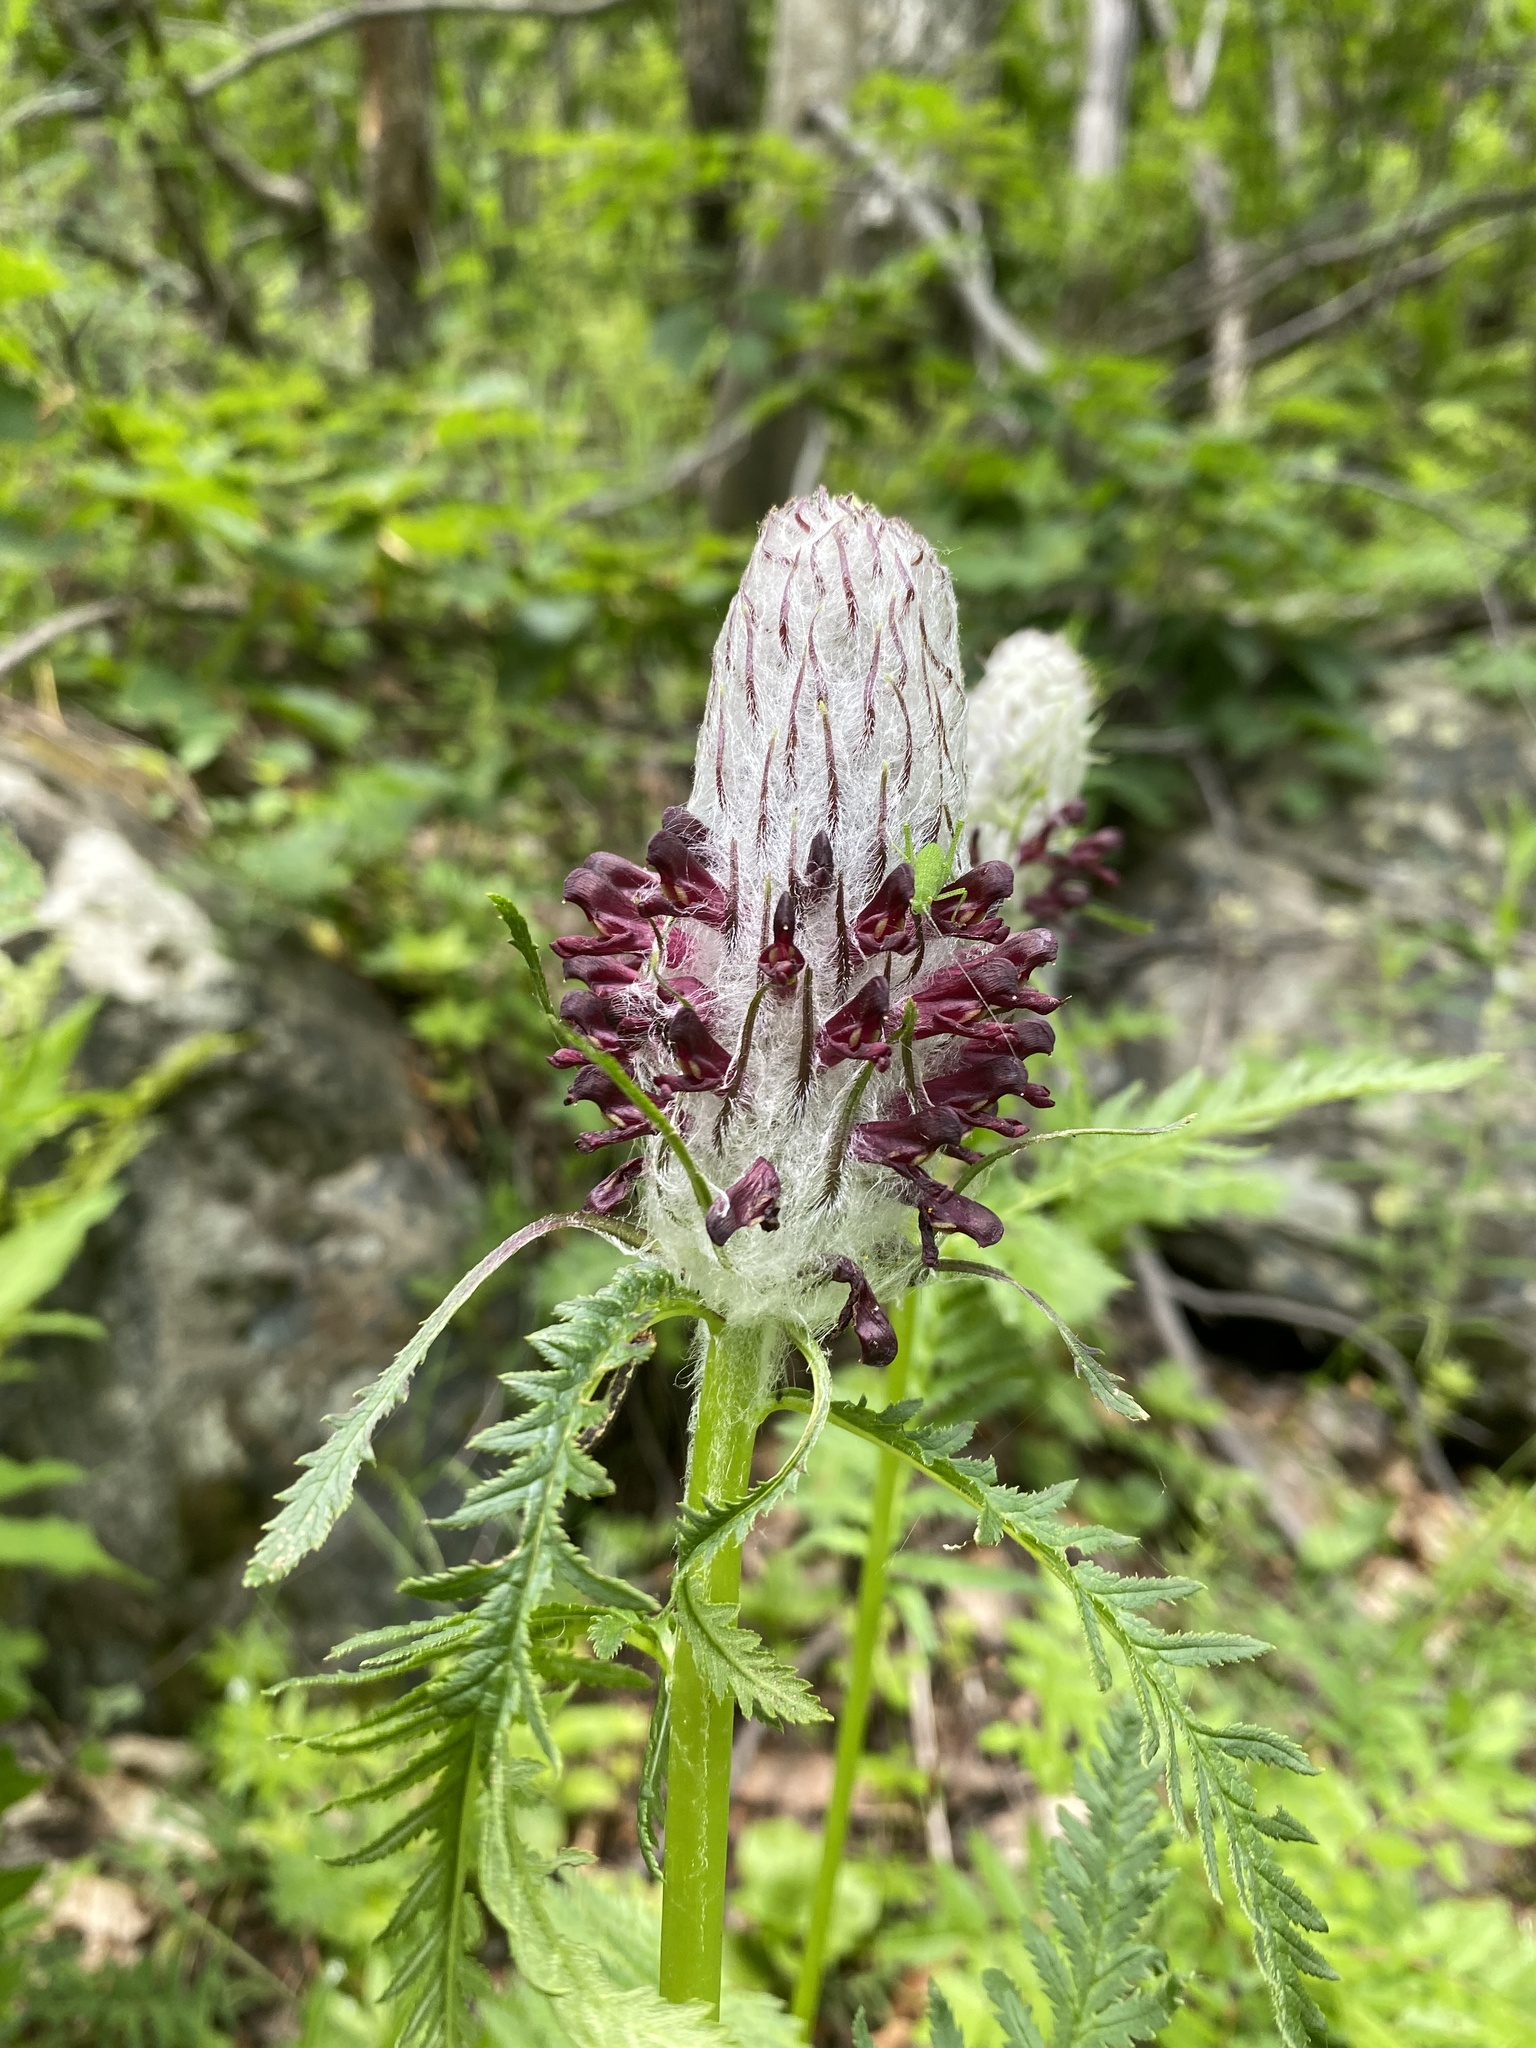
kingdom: Plantae
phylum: Tracheophyta
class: Magnoliopsida
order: Lamiales
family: Orobanchaceae
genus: Pedicularis
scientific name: Pedicularis atropurpurea
